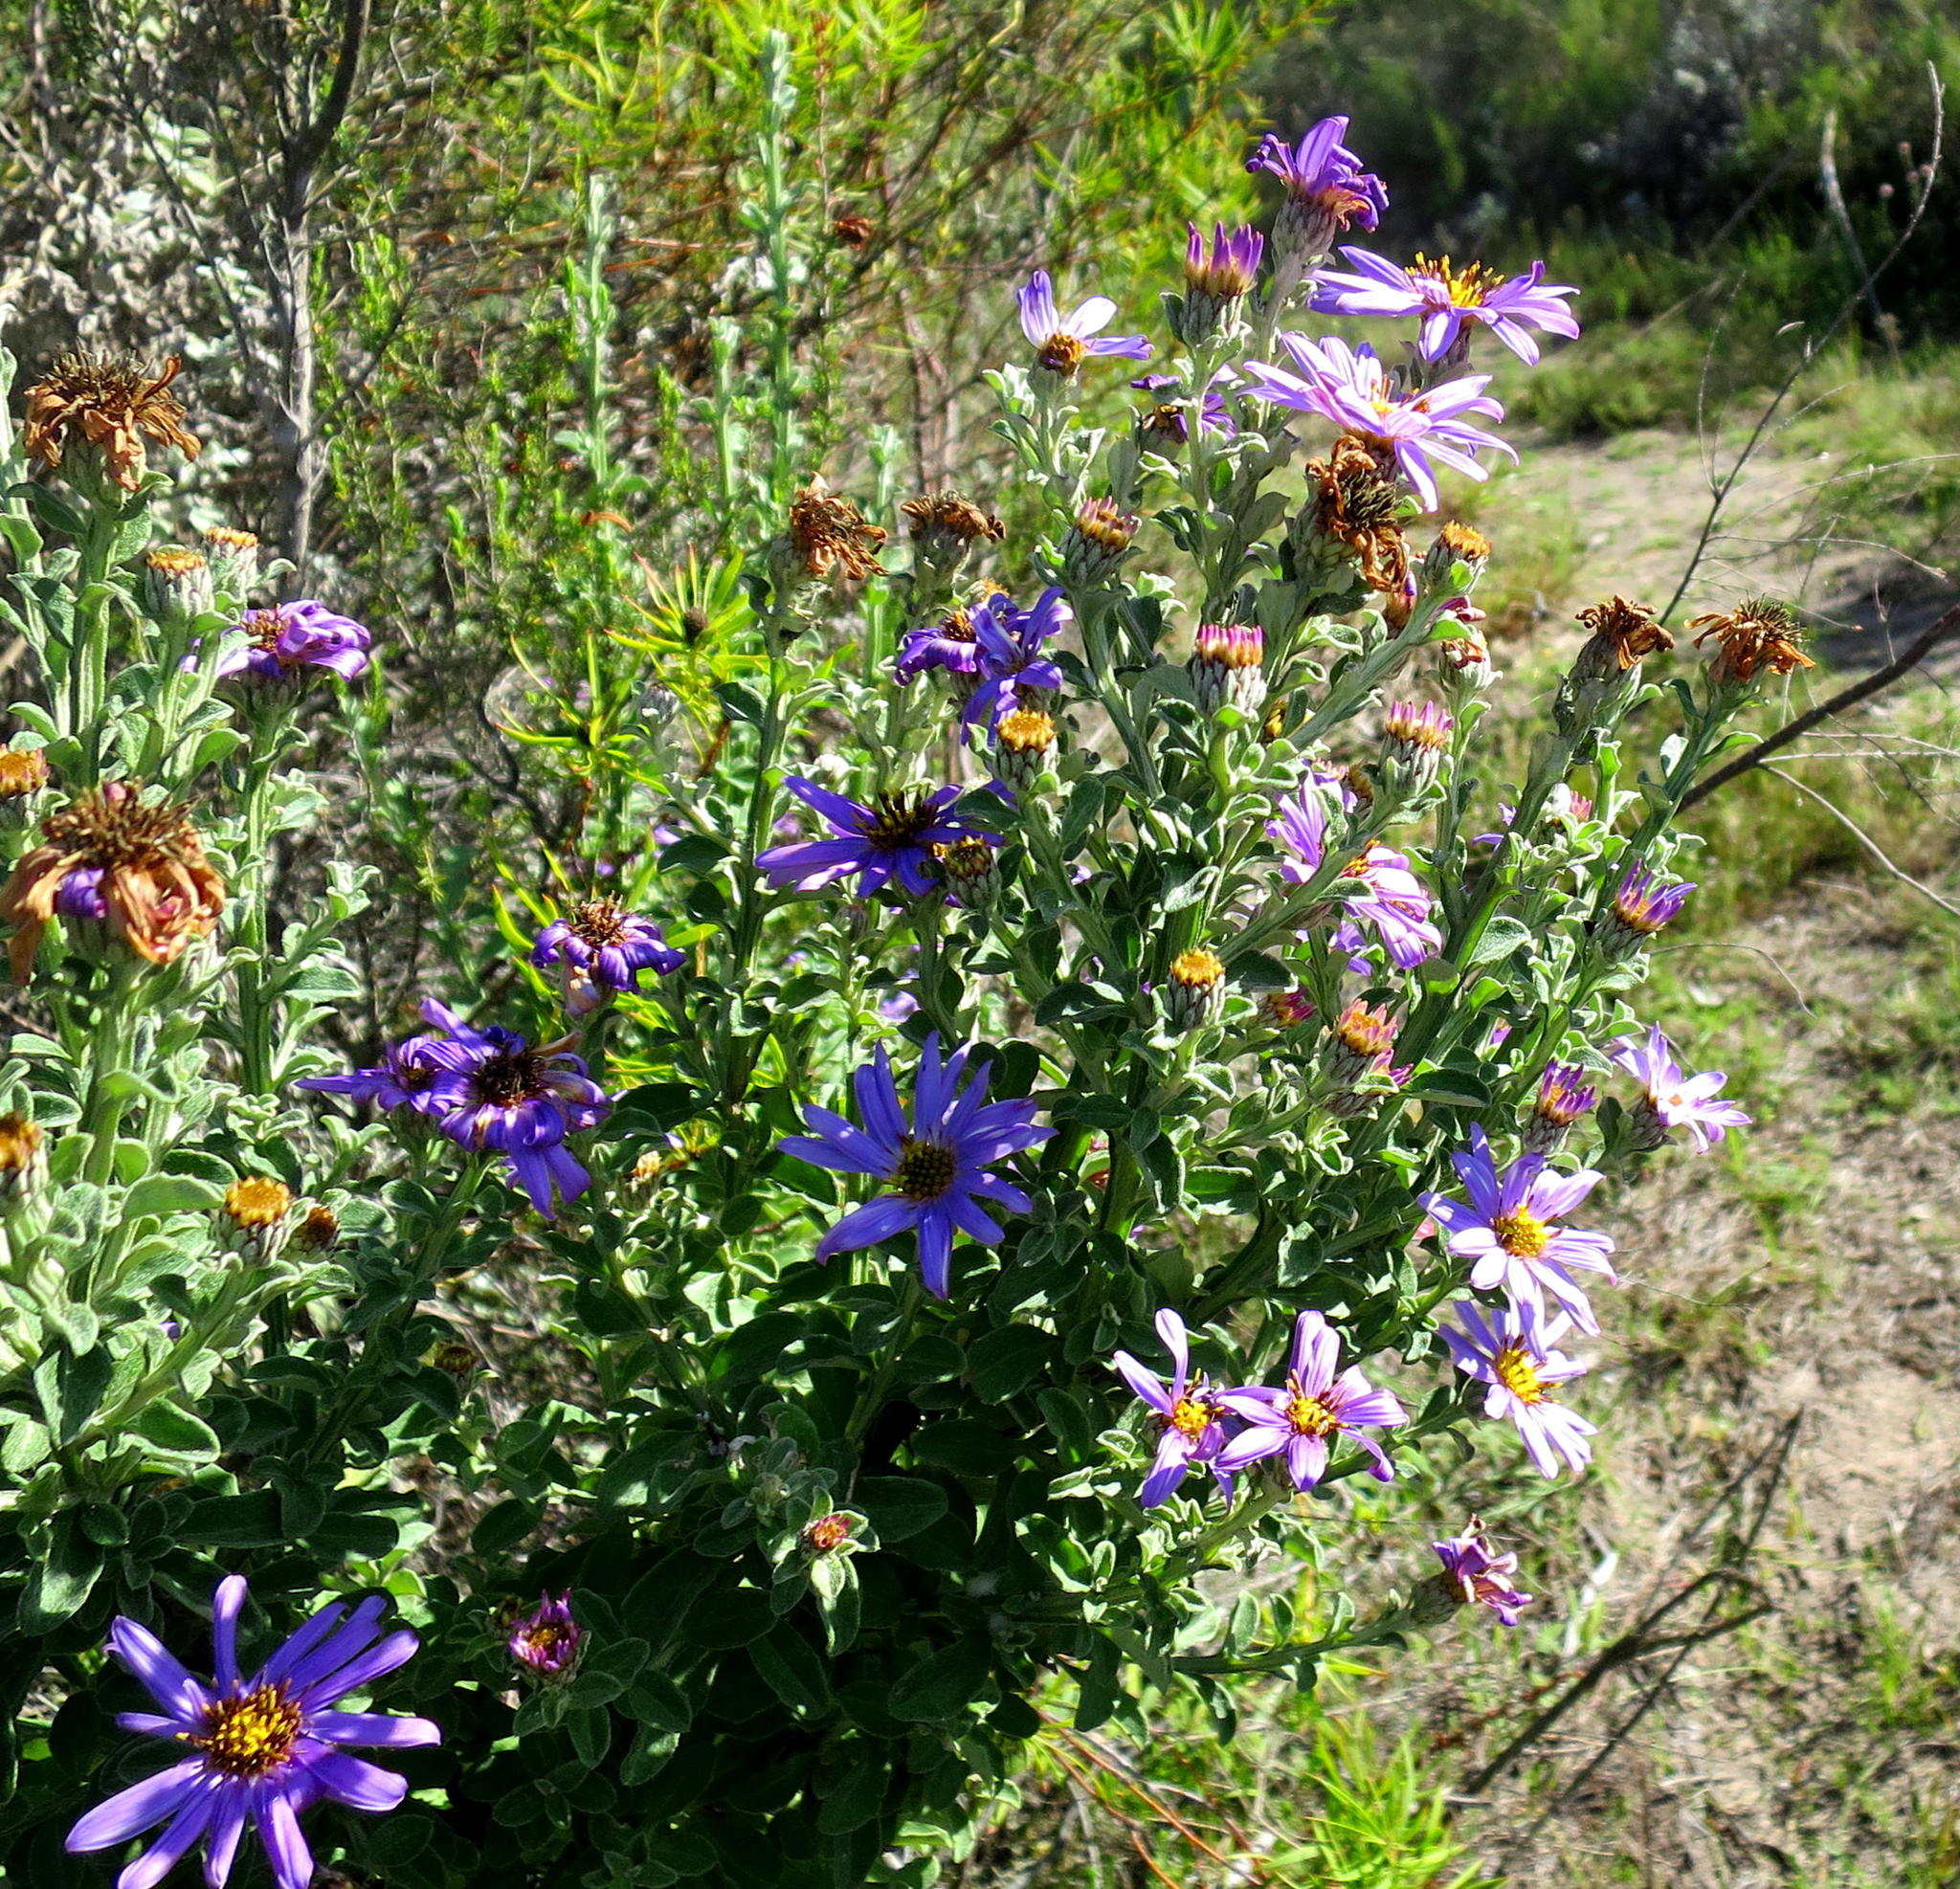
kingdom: Plantae
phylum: Tracheophyta
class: Magnoliopsida
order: Asterales
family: Asteraceae
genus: Printzia
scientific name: Printzia polifolia
